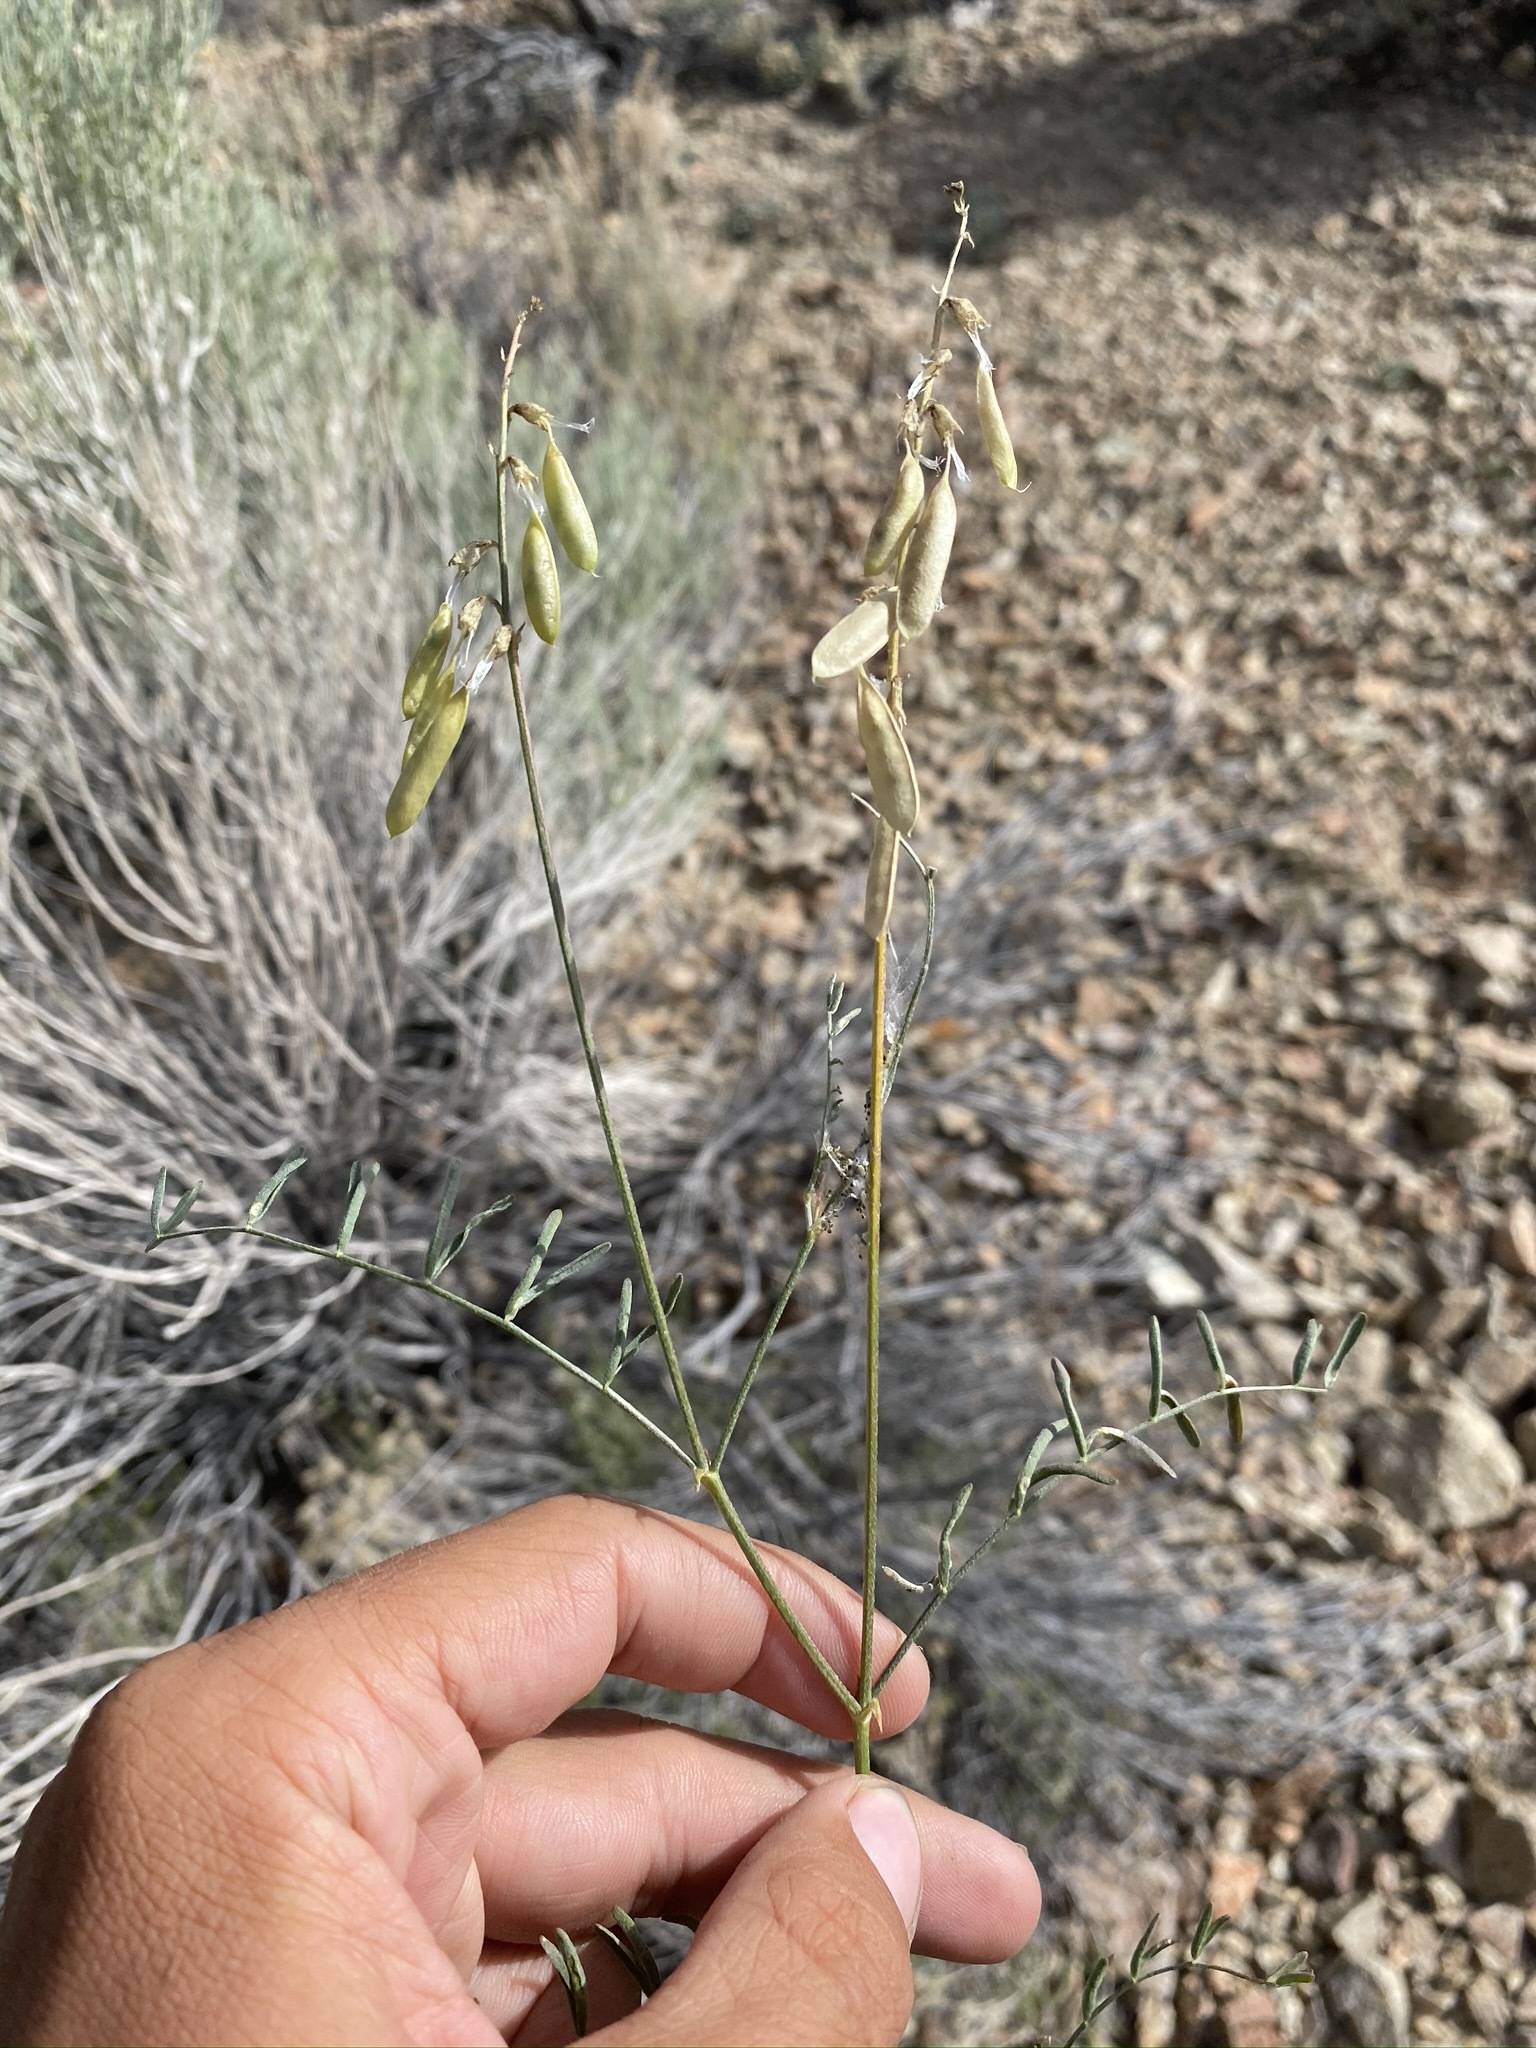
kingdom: Plantae
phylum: Tracheophyta
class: Magnoliopsida
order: Fabales
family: Fabaceae
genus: Astragalus
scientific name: Astragalus filipes
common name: Basalt milk-vetch
